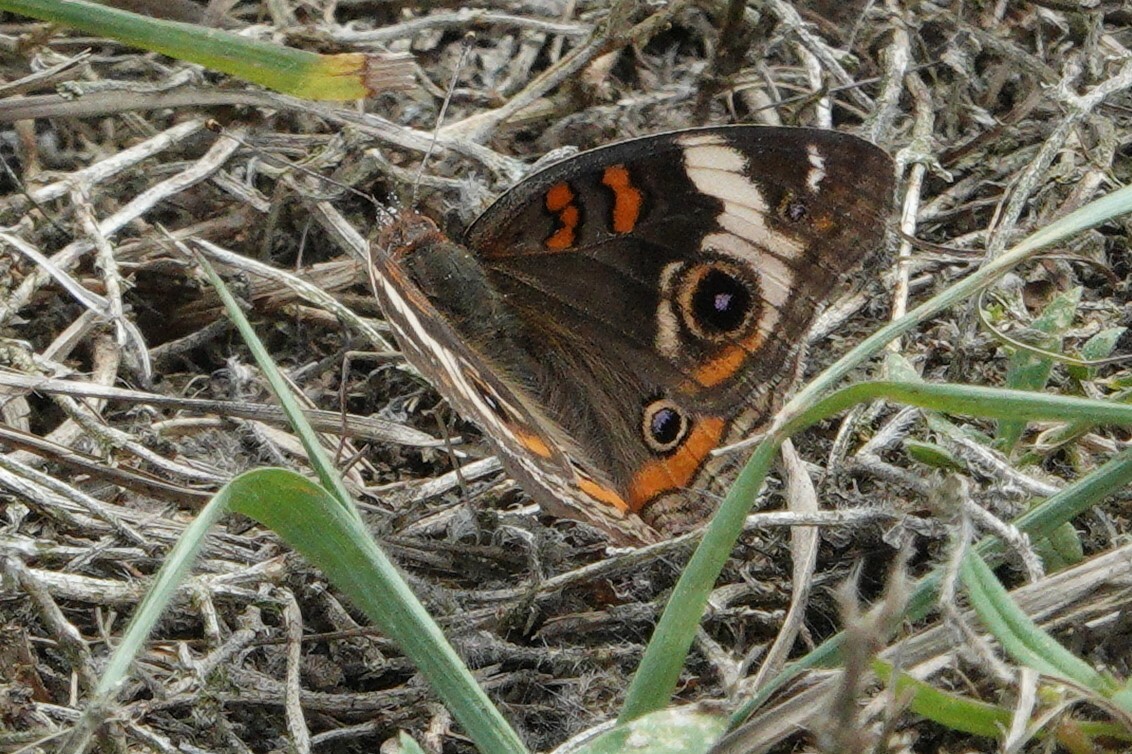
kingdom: Animalia
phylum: Arthropoda
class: Insecta
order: Lepidoptera
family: Nymphalidae
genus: Junonia
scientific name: Junonia coenia
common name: Common buckeye
